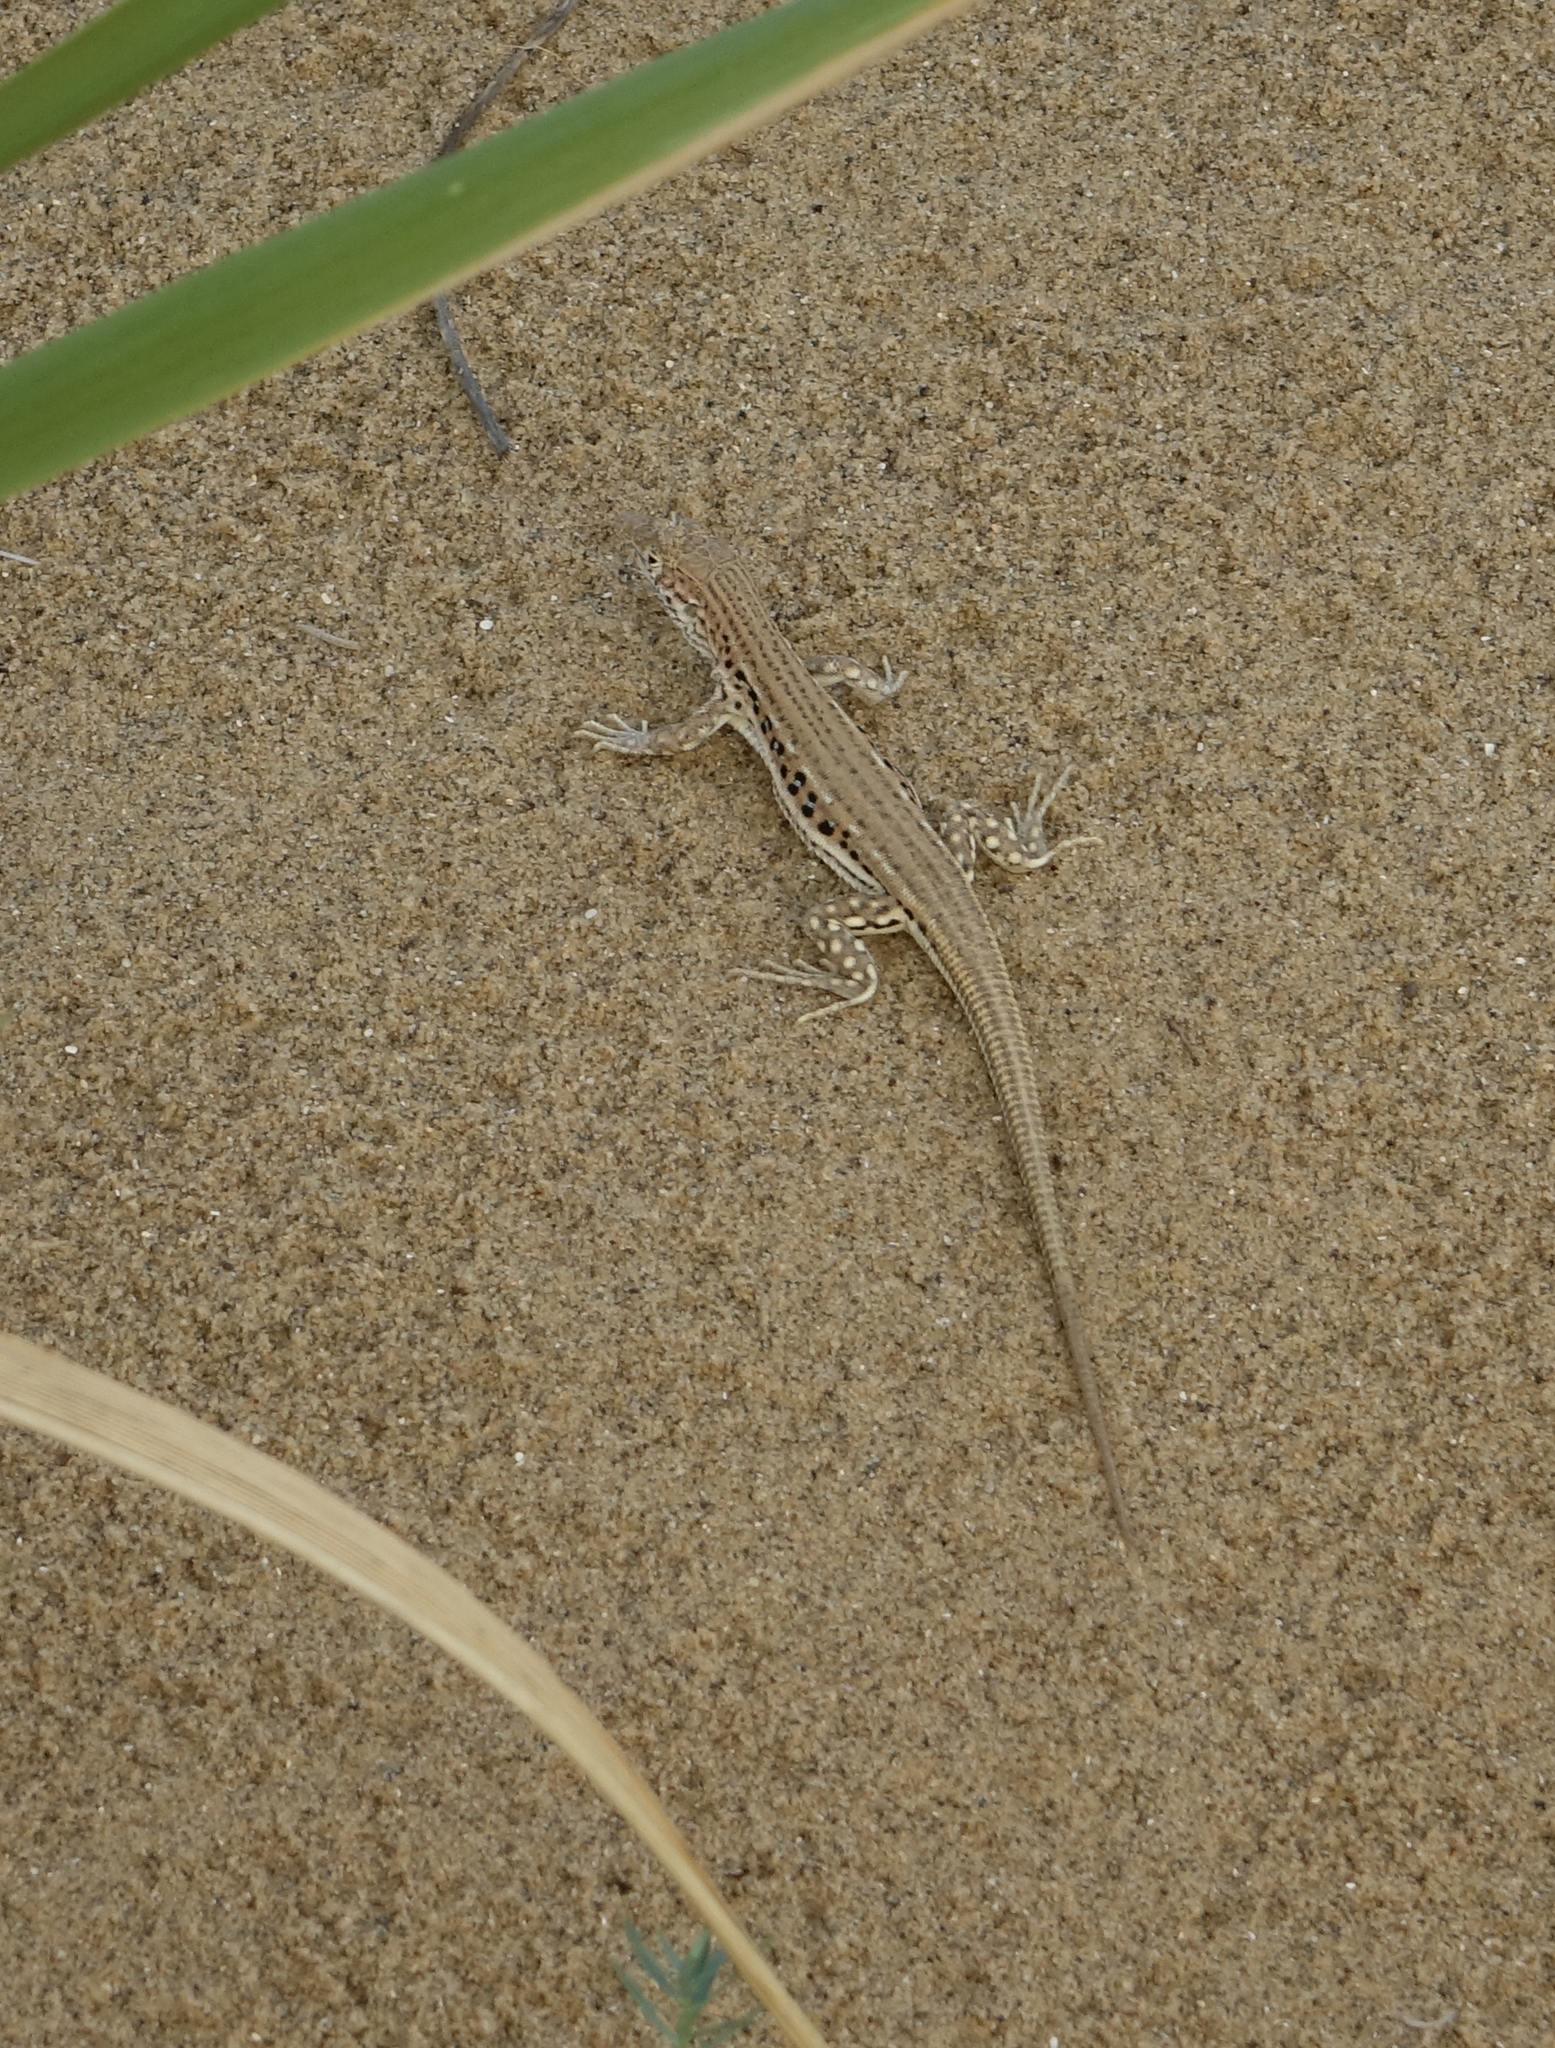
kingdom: Animalia
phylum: Chordata
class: Squamata
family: Lacertidae
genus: Eremias
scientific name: Eremias velox
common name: Central asian racerunner
